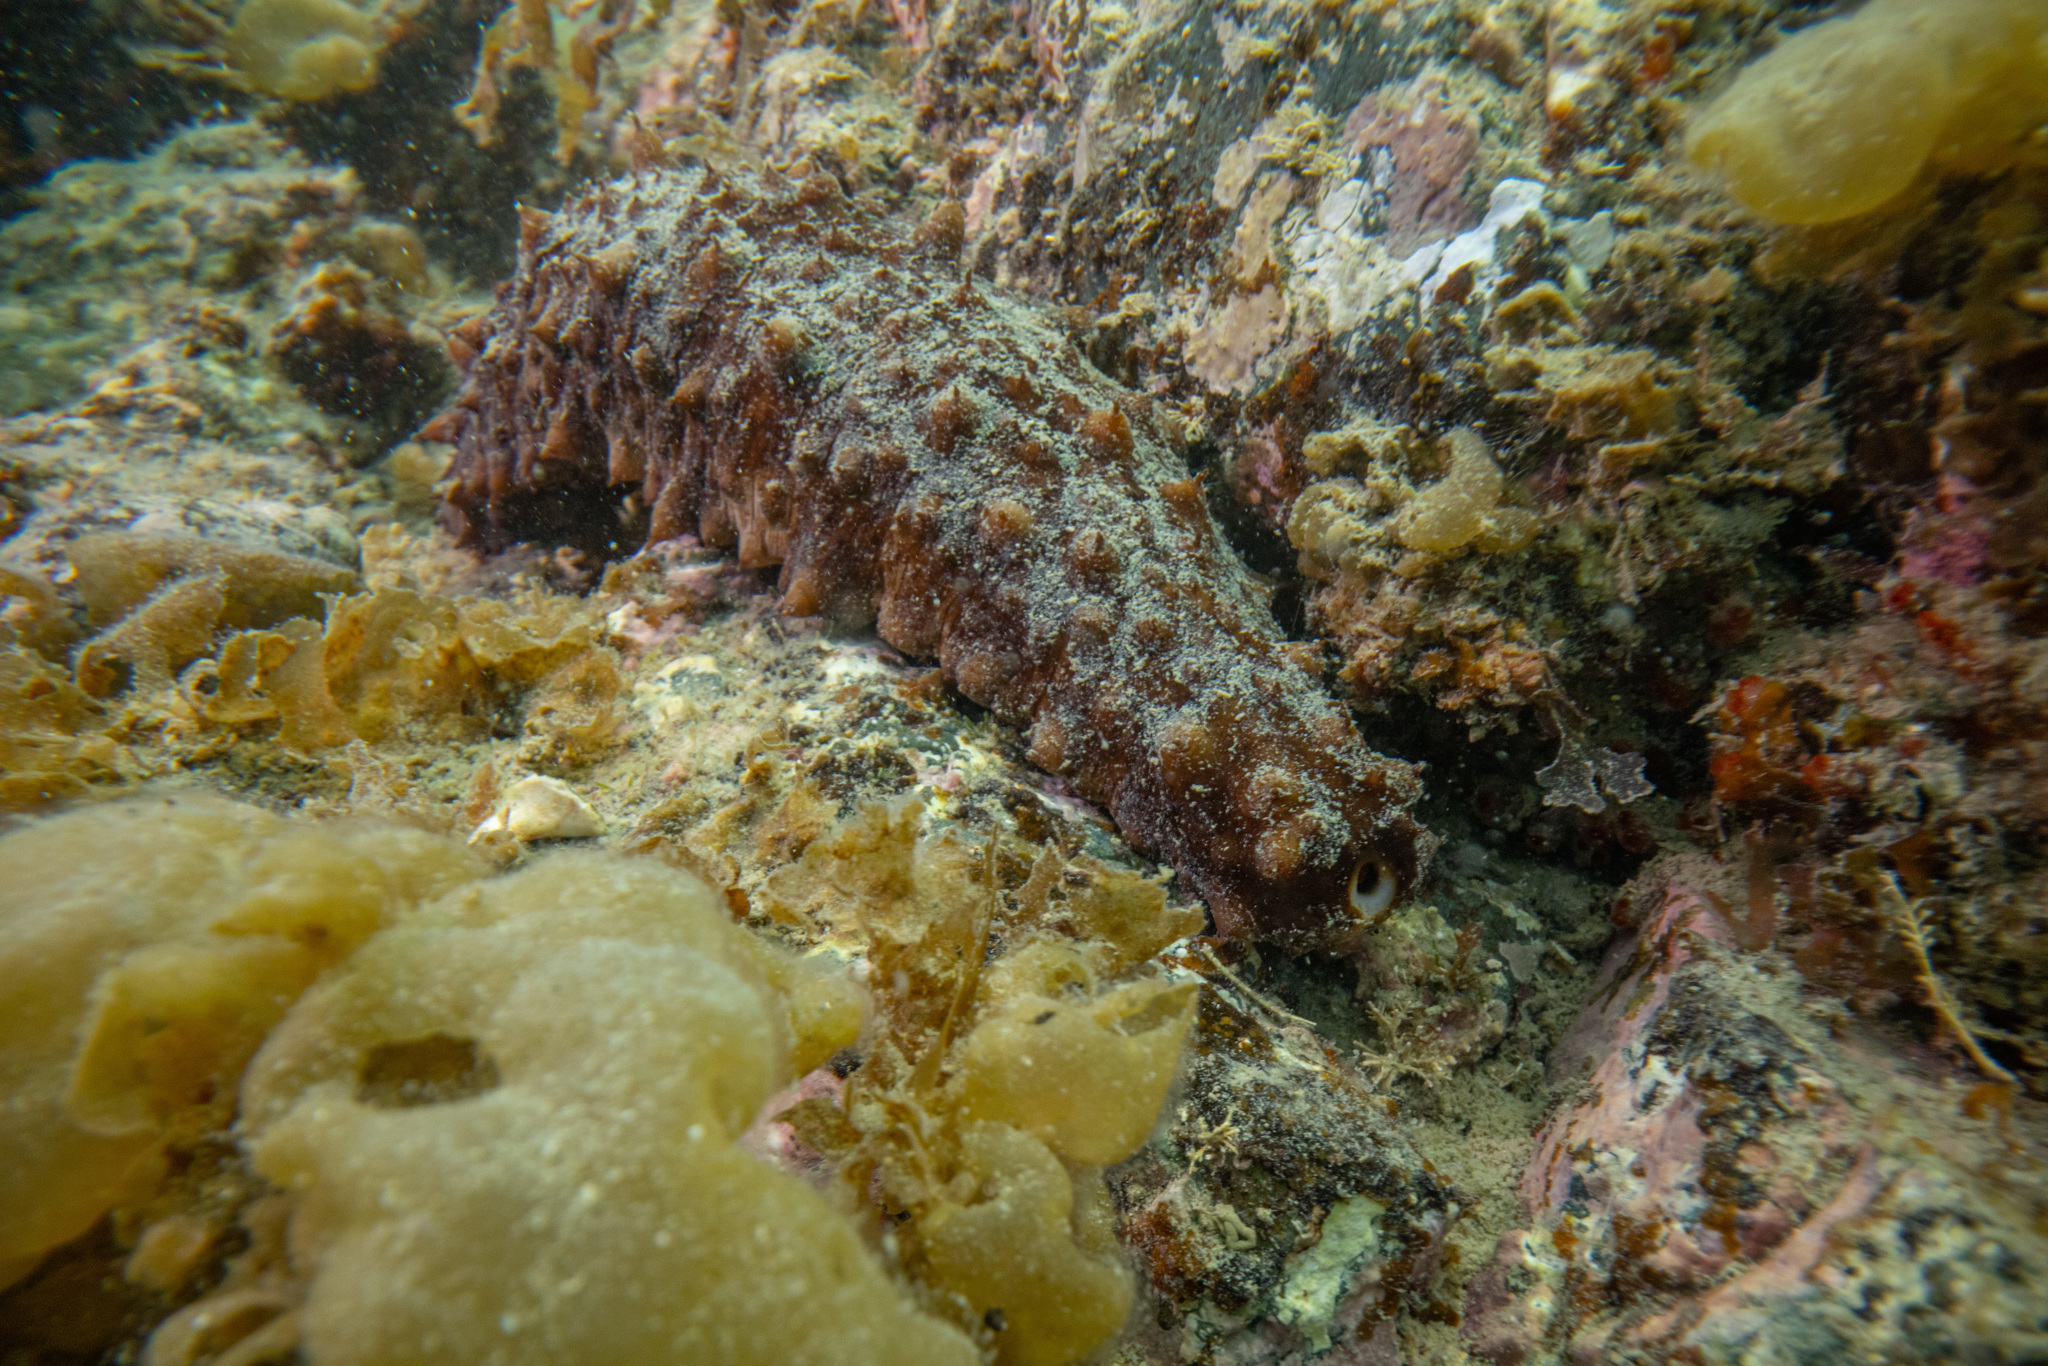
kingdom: Animalia
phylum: Echinodermata
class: Holothuroidea
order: Synallactida
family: Stichopodidae
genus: Australostichopus
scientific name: Australostichopus mollis
